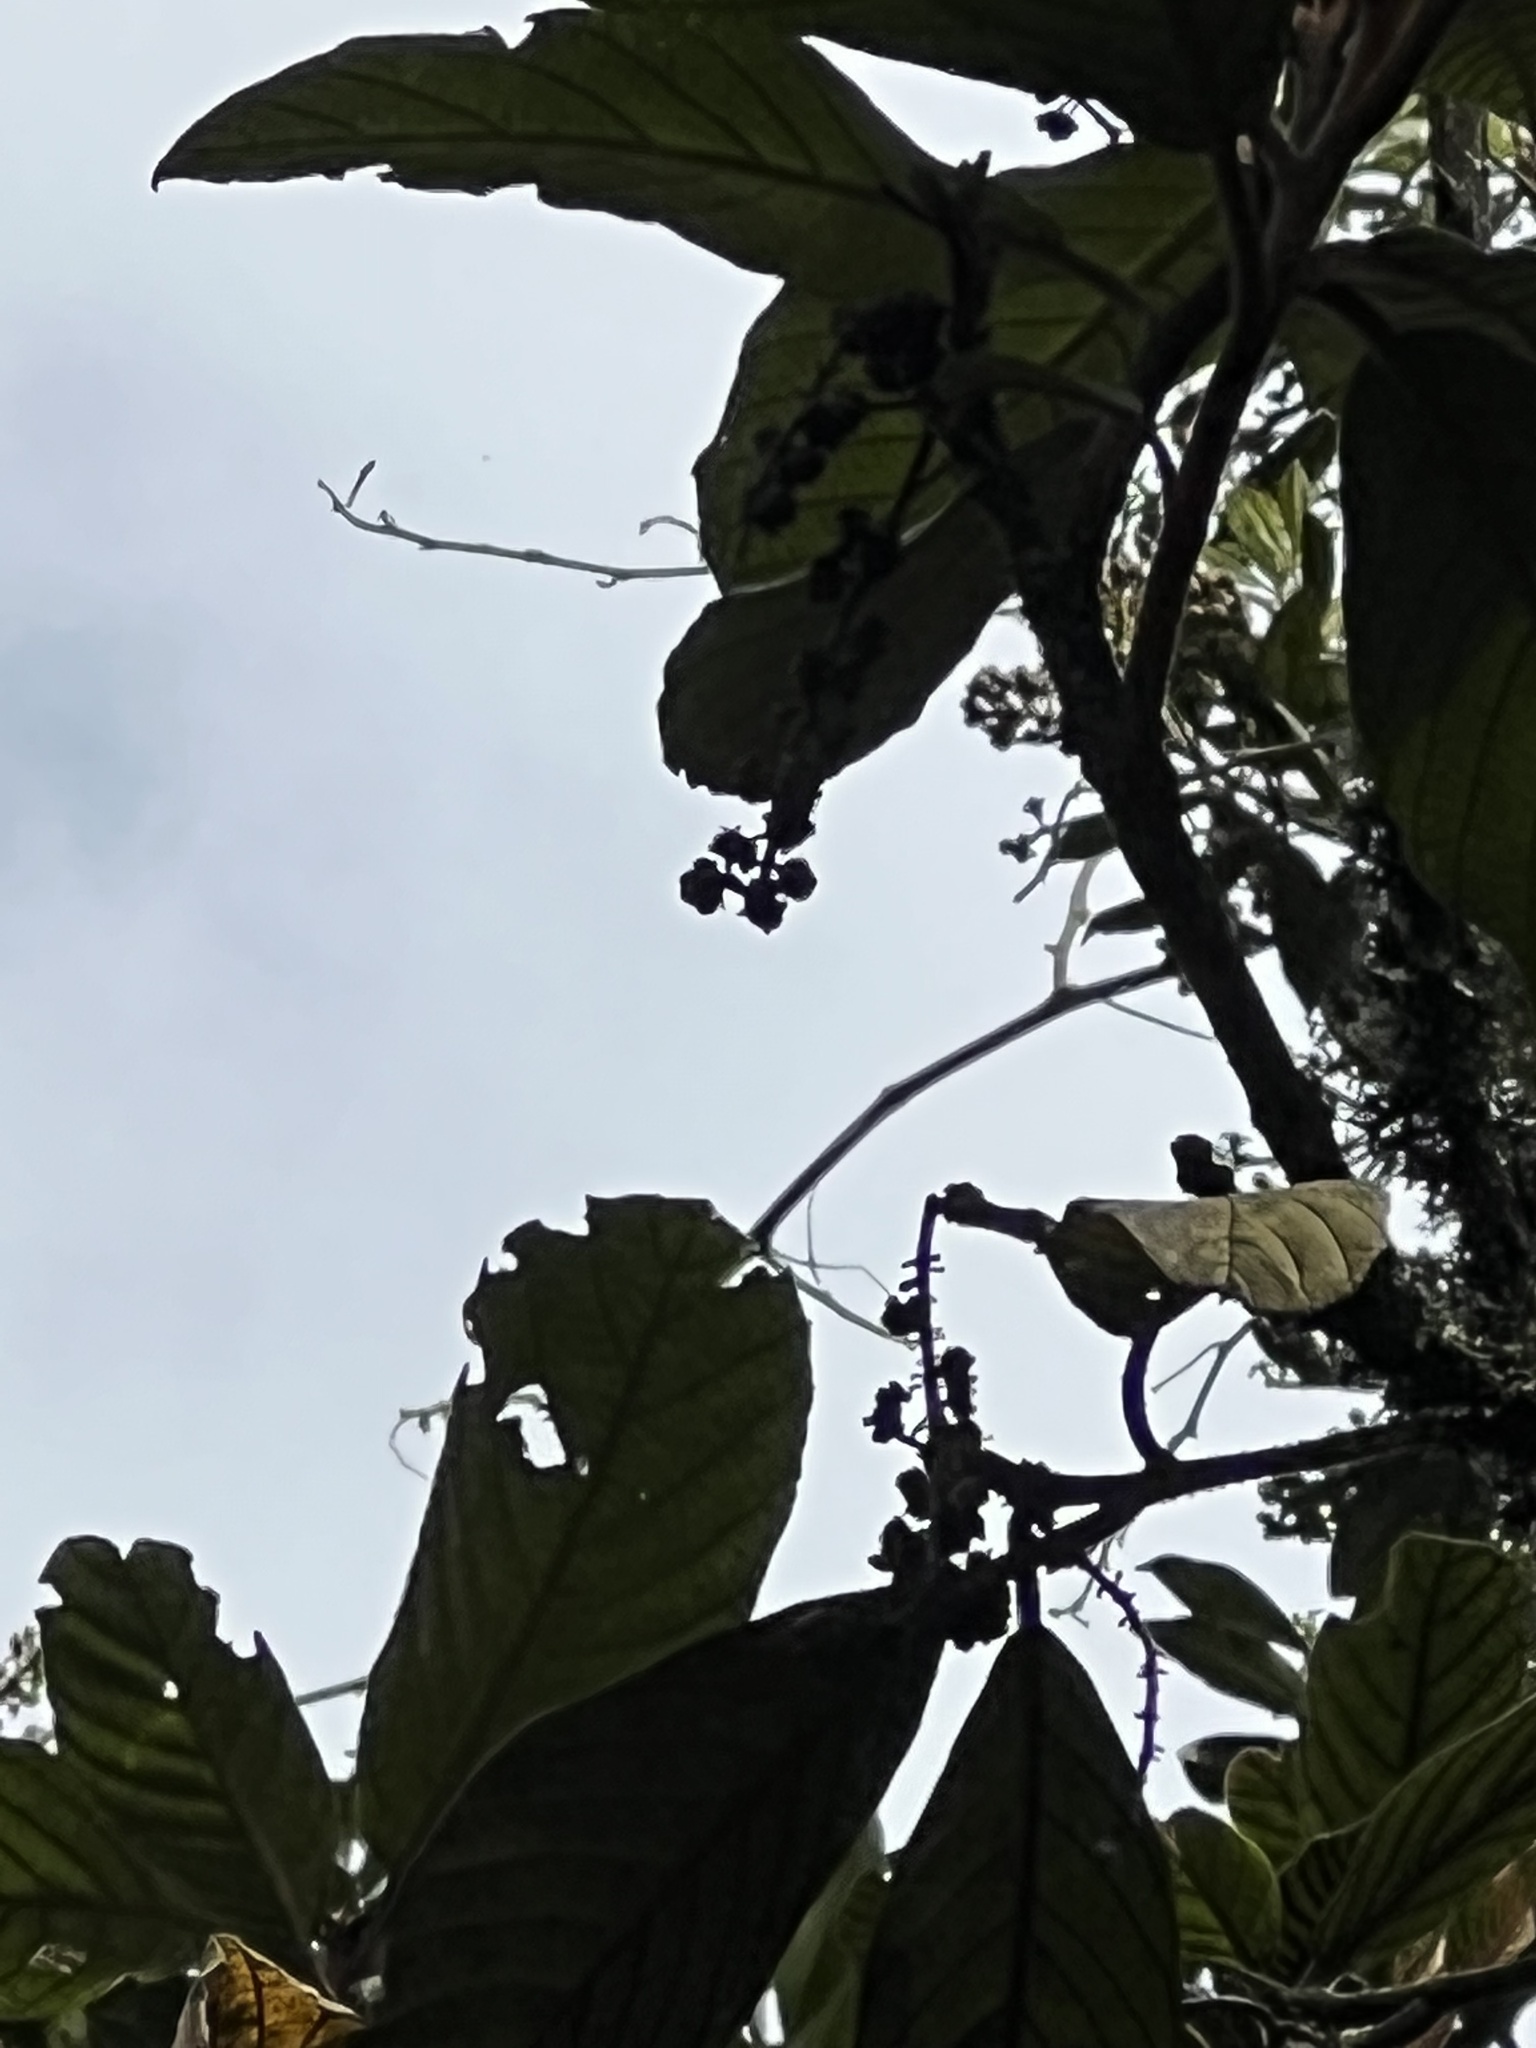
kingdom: Plantae
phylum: Tracheophyta
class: Magnoliopsida
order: Ericales
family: Clethraceae
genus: Clethra
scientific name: Clethra rugosa
